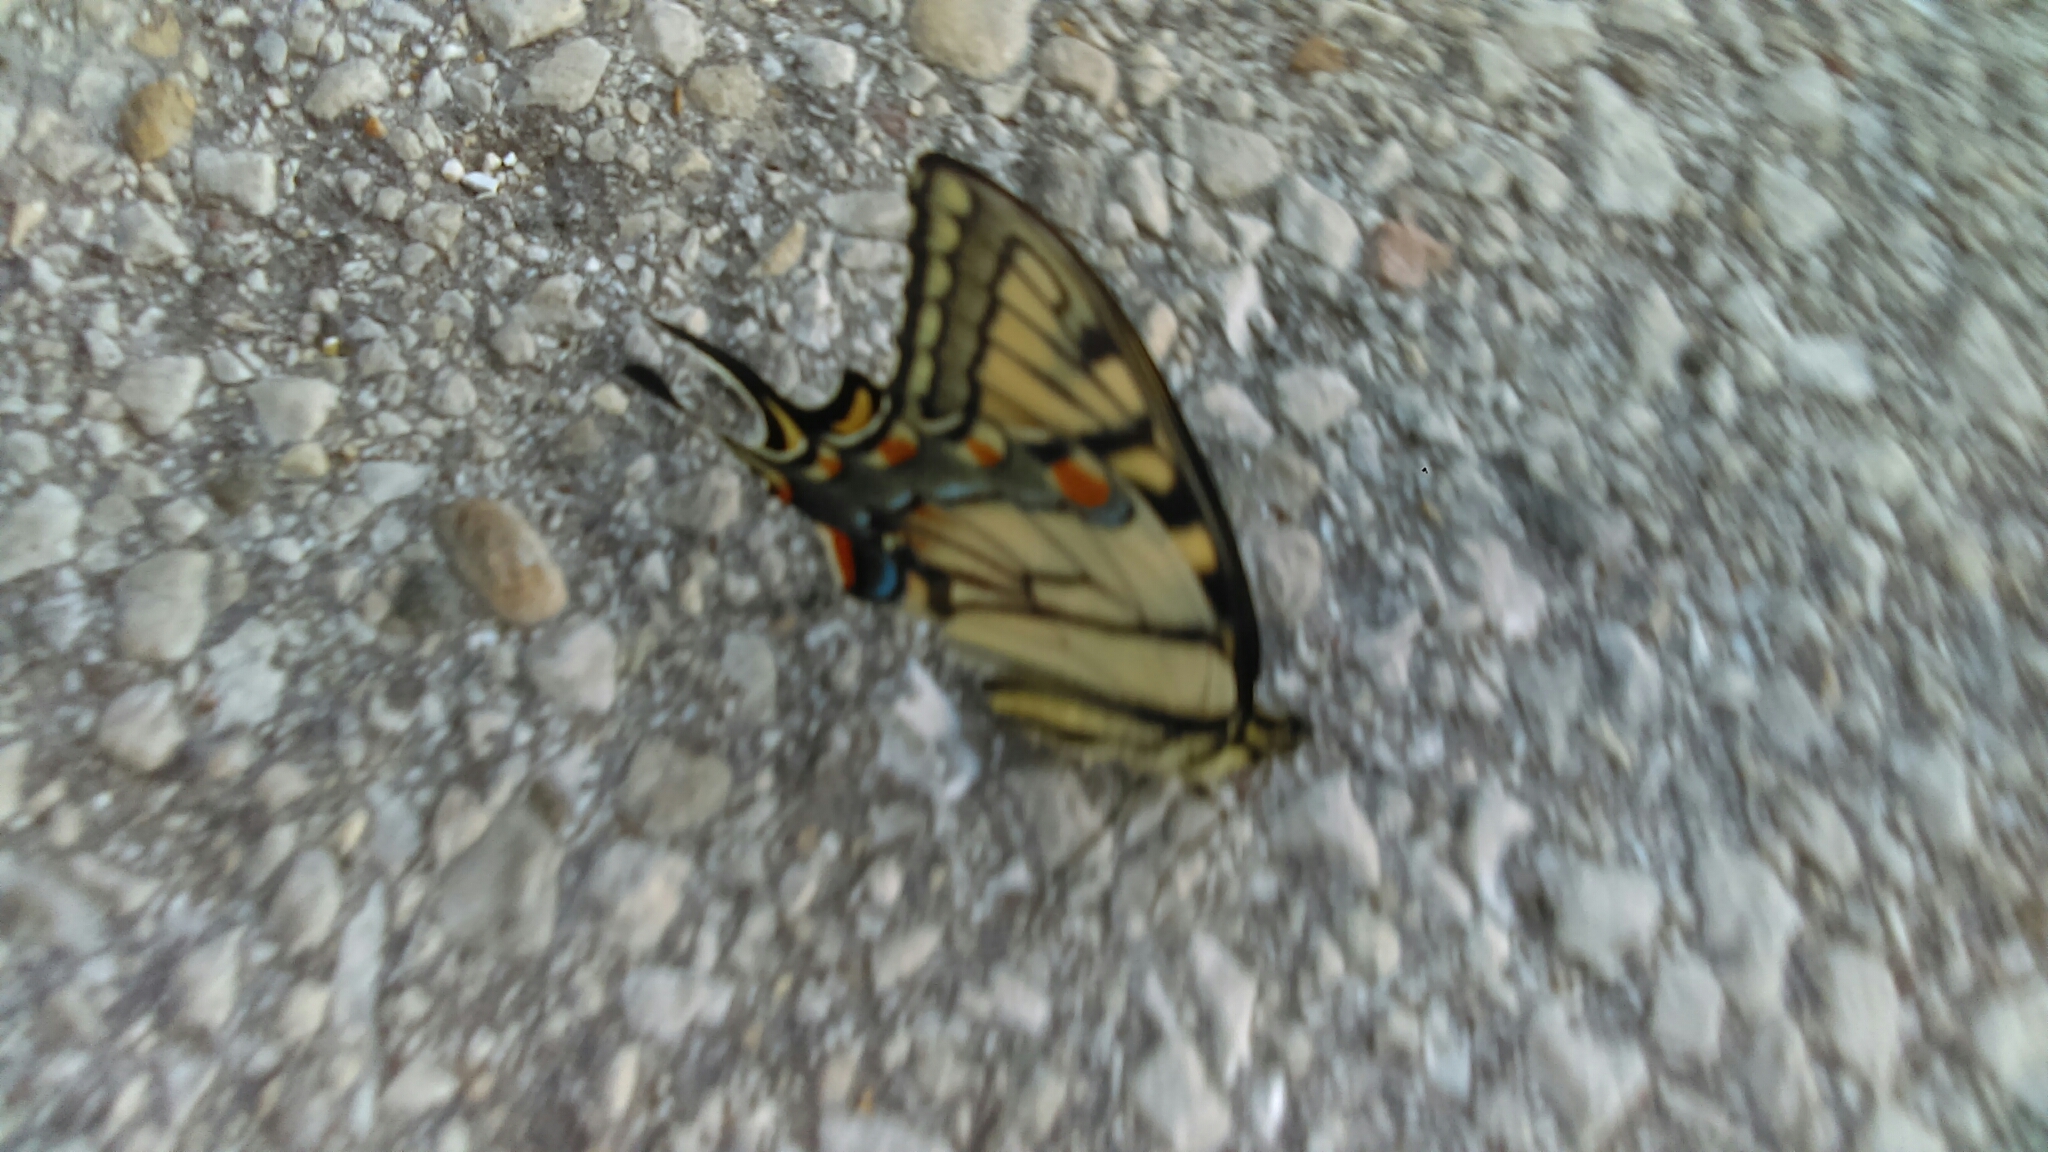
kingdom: Animalia
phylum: Arthropoda
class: Insecta
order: Lepidoptera
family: Papilionidae
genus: Papilio
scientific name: Papilio glaucus
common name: Tiger swallowtail
